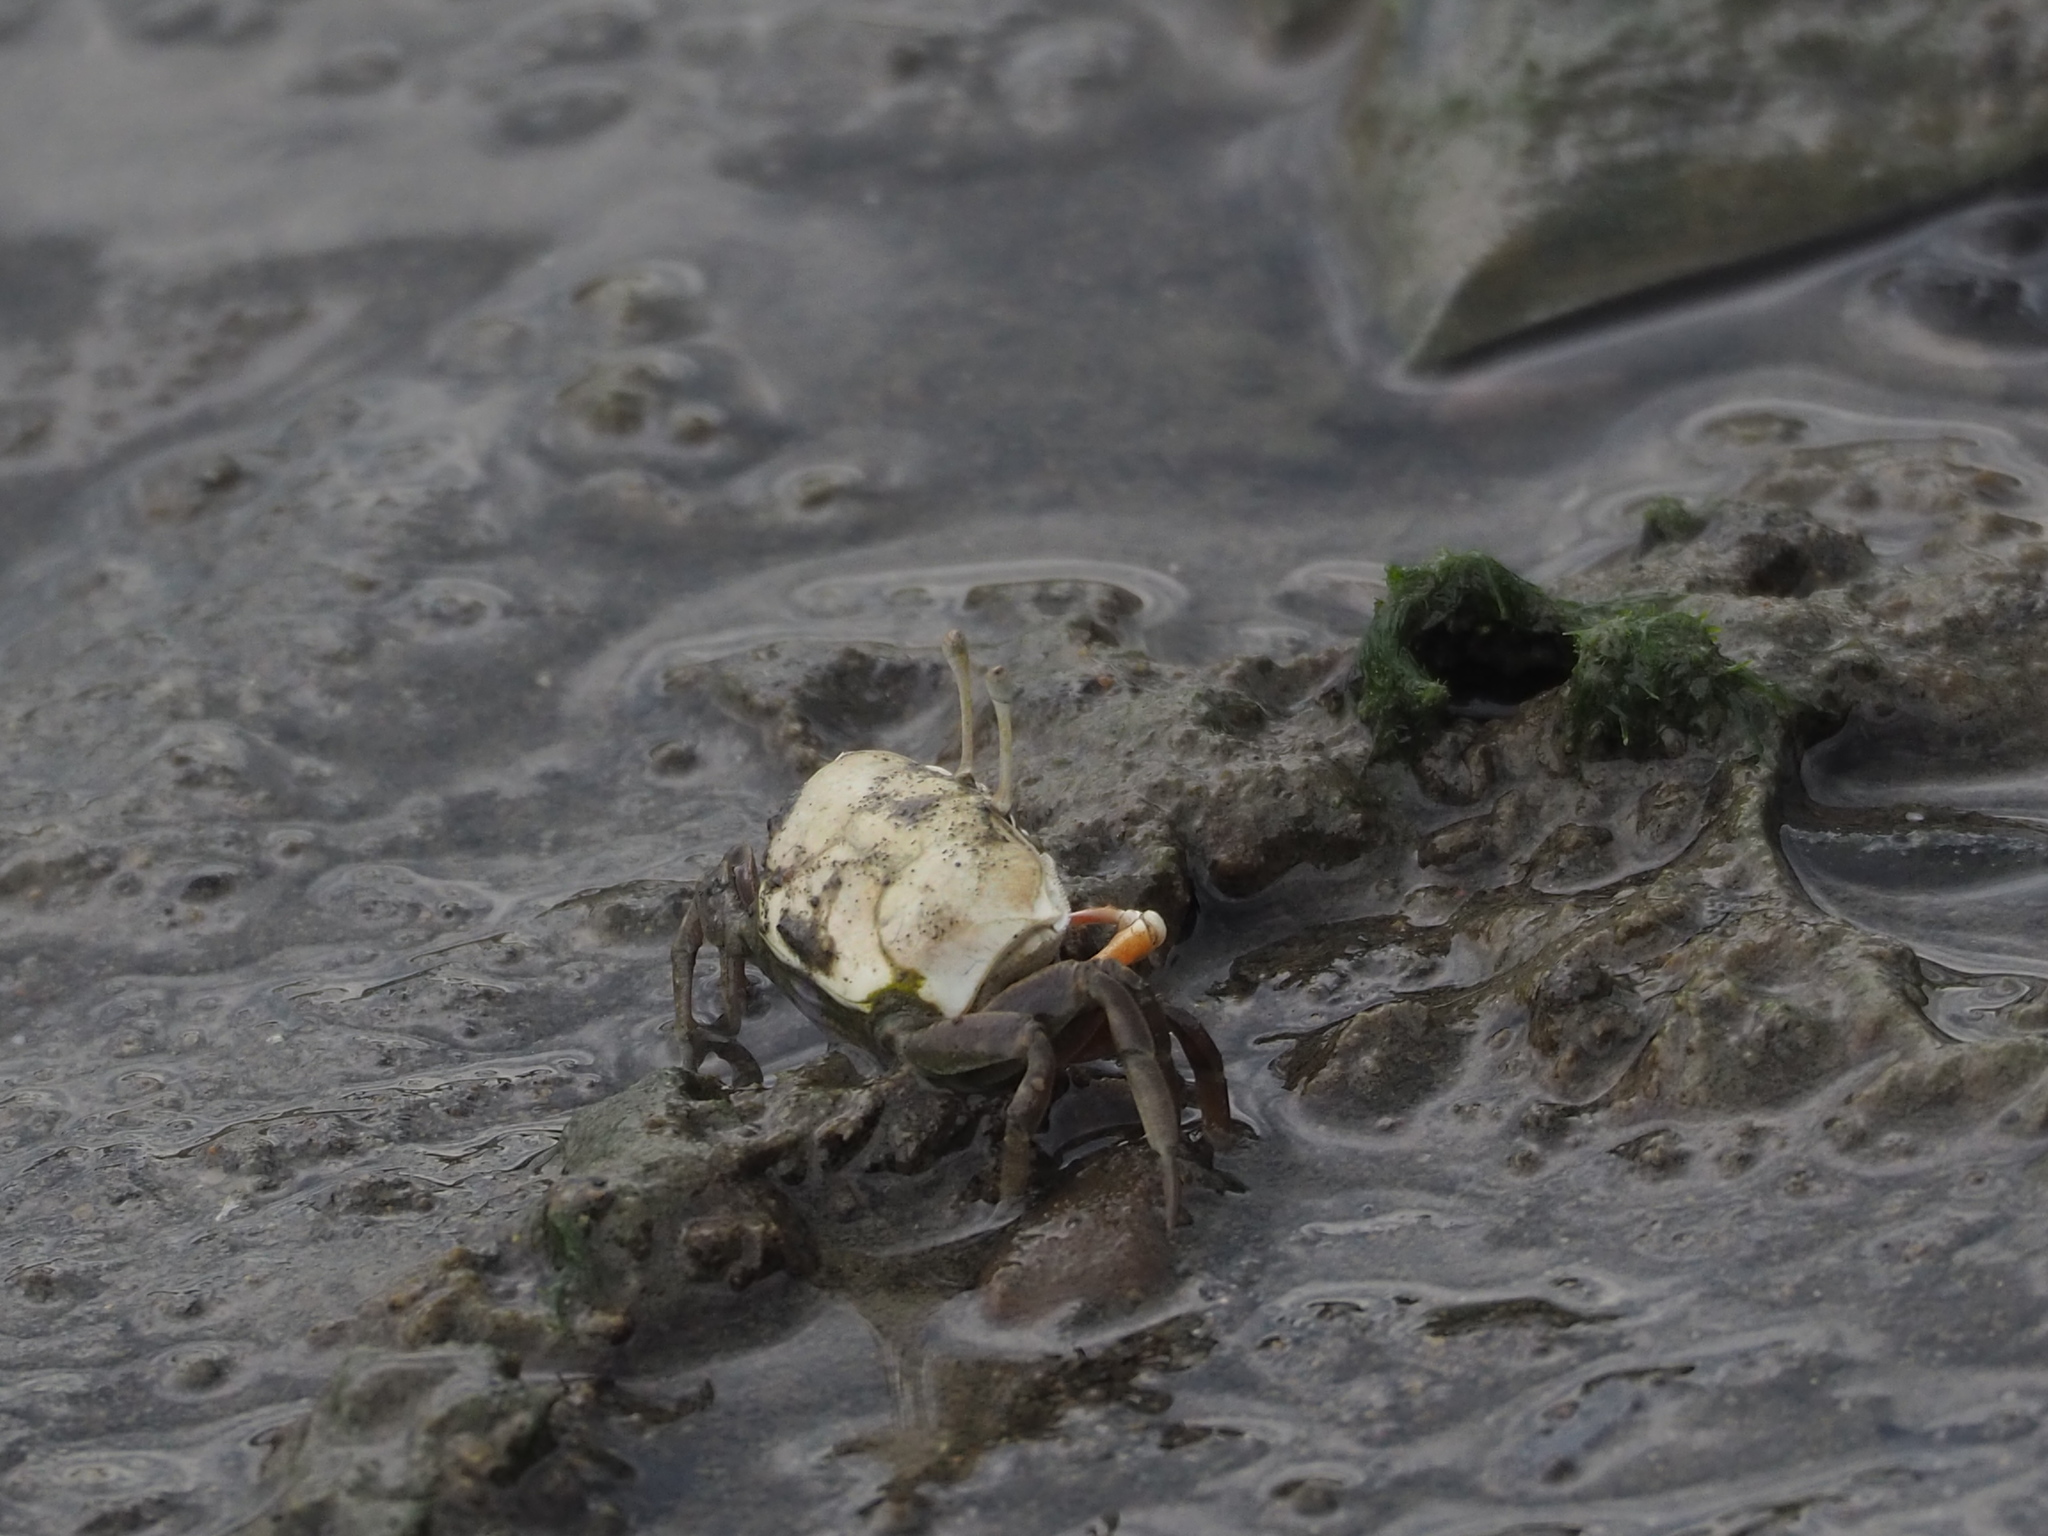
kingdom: Animalia
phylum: Arthropoda
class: Malacostraca
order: Decapoda
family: Ocypodidae
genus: Gelasimus
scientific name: Gelasimus borealis
